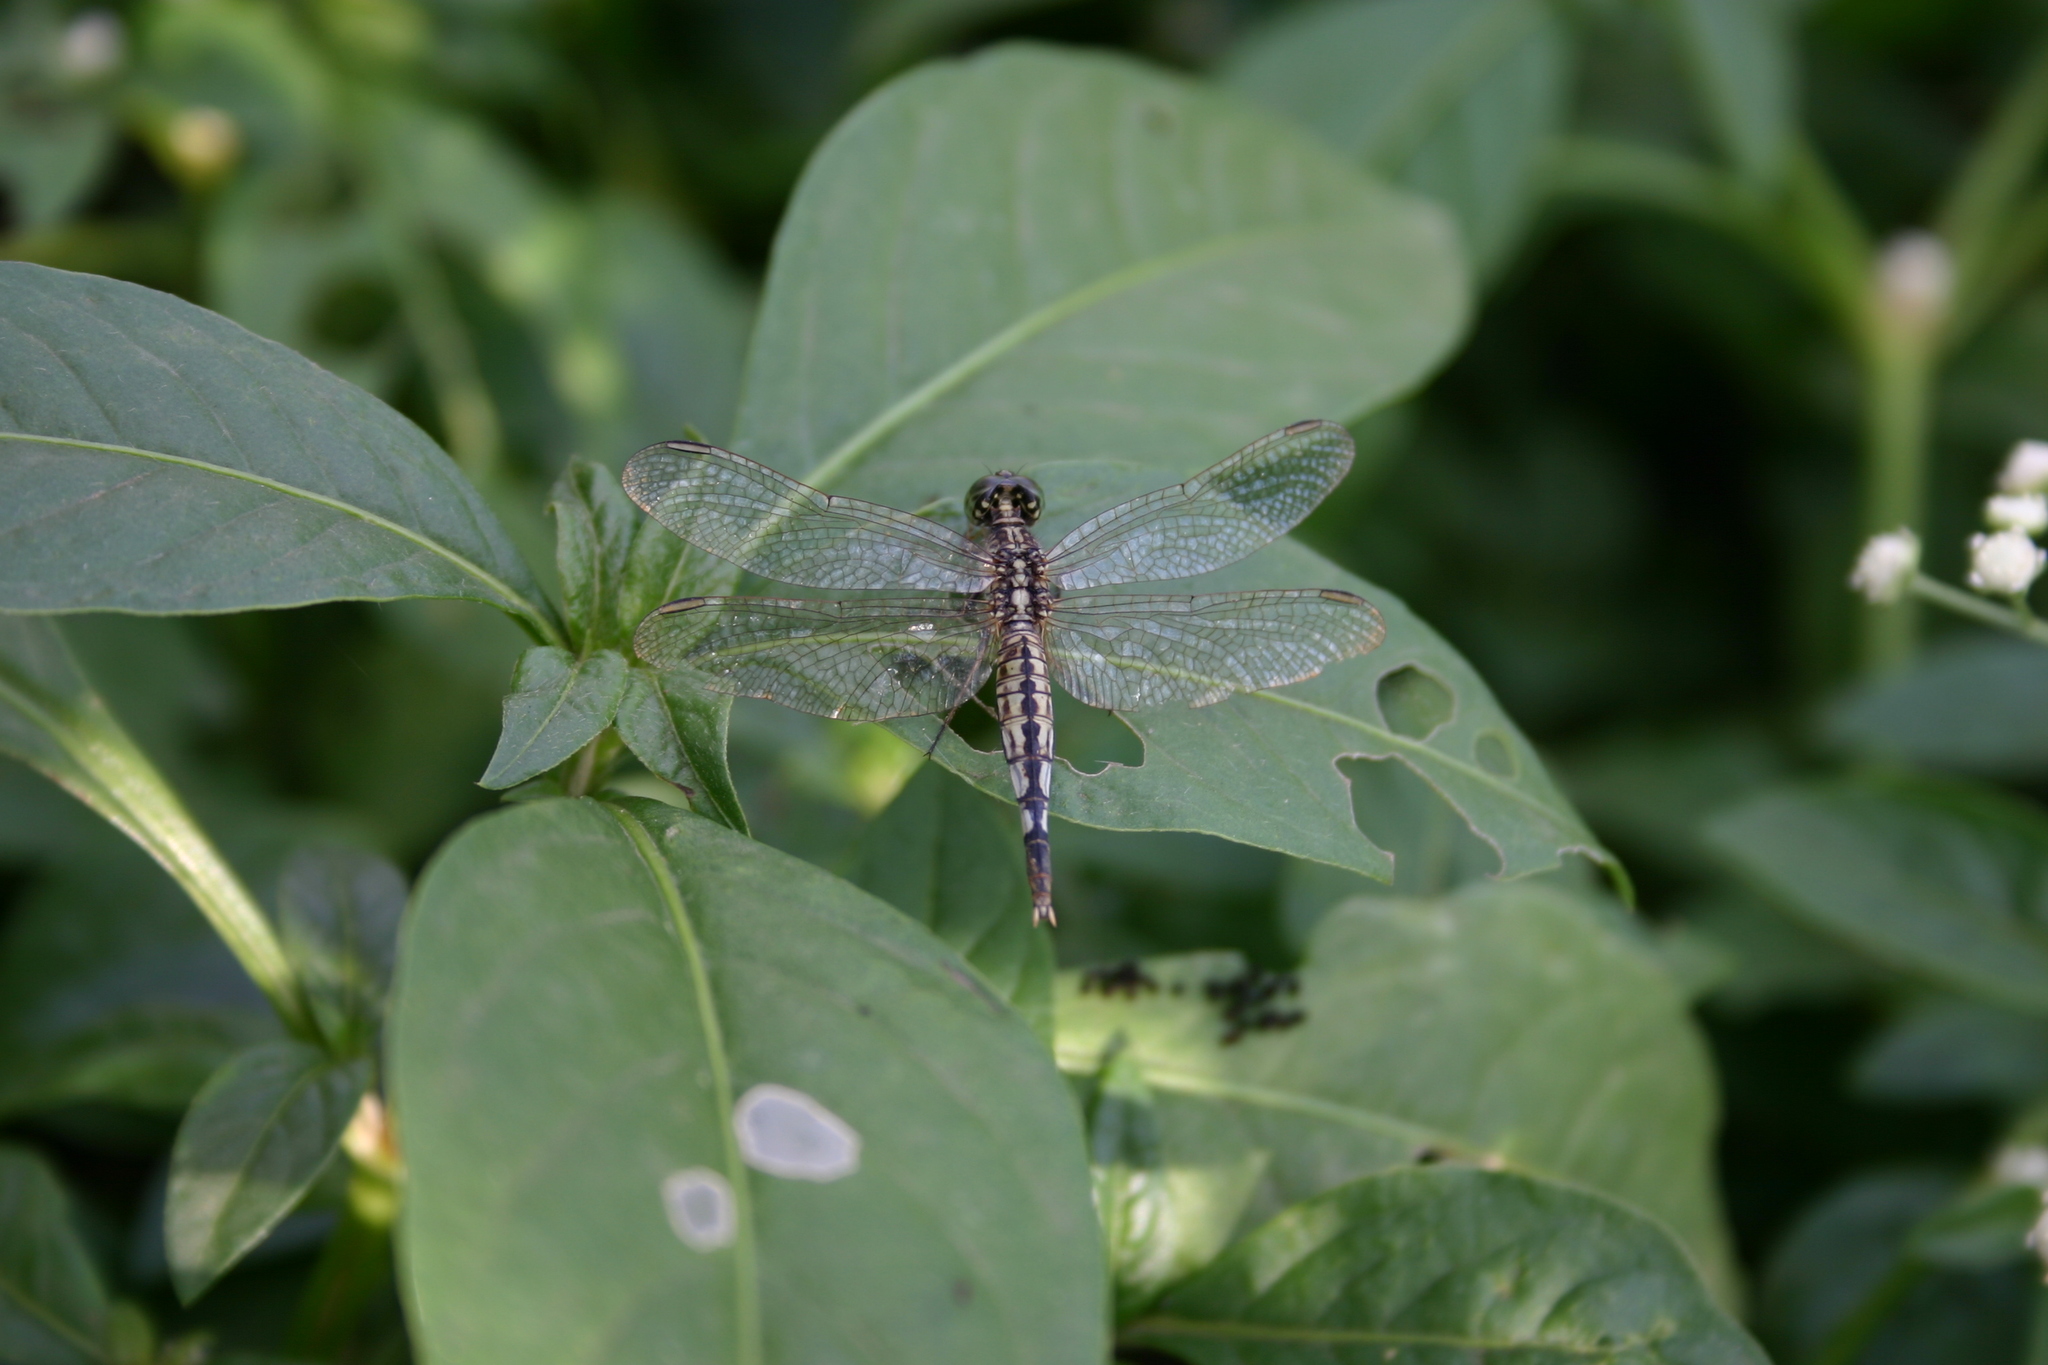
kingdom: Animalia
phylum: Arthropoda
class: Insecta
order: Odonata
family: Libellulidae
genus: Acisoma
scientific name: Acisoma panorpoides
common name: Asian pintail
